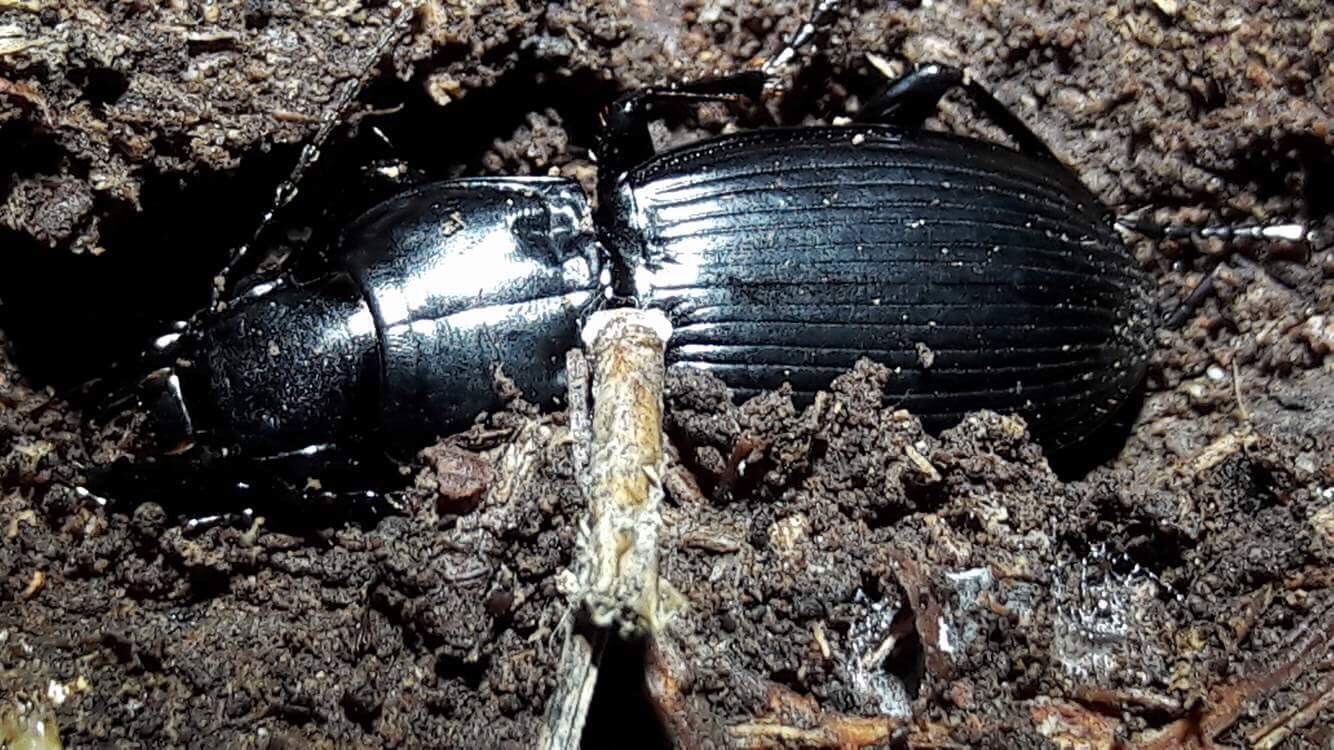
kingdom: Animalia
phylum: Arthropoda
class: Insecta
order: Coleoptera
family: Carabidae
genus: Plocamostethus
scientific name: Plocamostethus planiusculus
